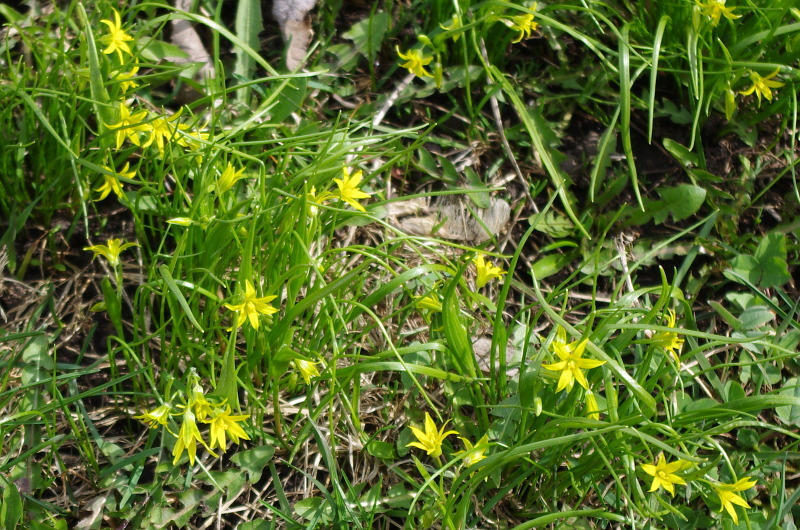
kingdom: Plantae
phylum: Tracheophyta
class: Liliopsida
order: Liliales
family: Liliaceae
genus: Gagea
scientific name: Gagea minima
